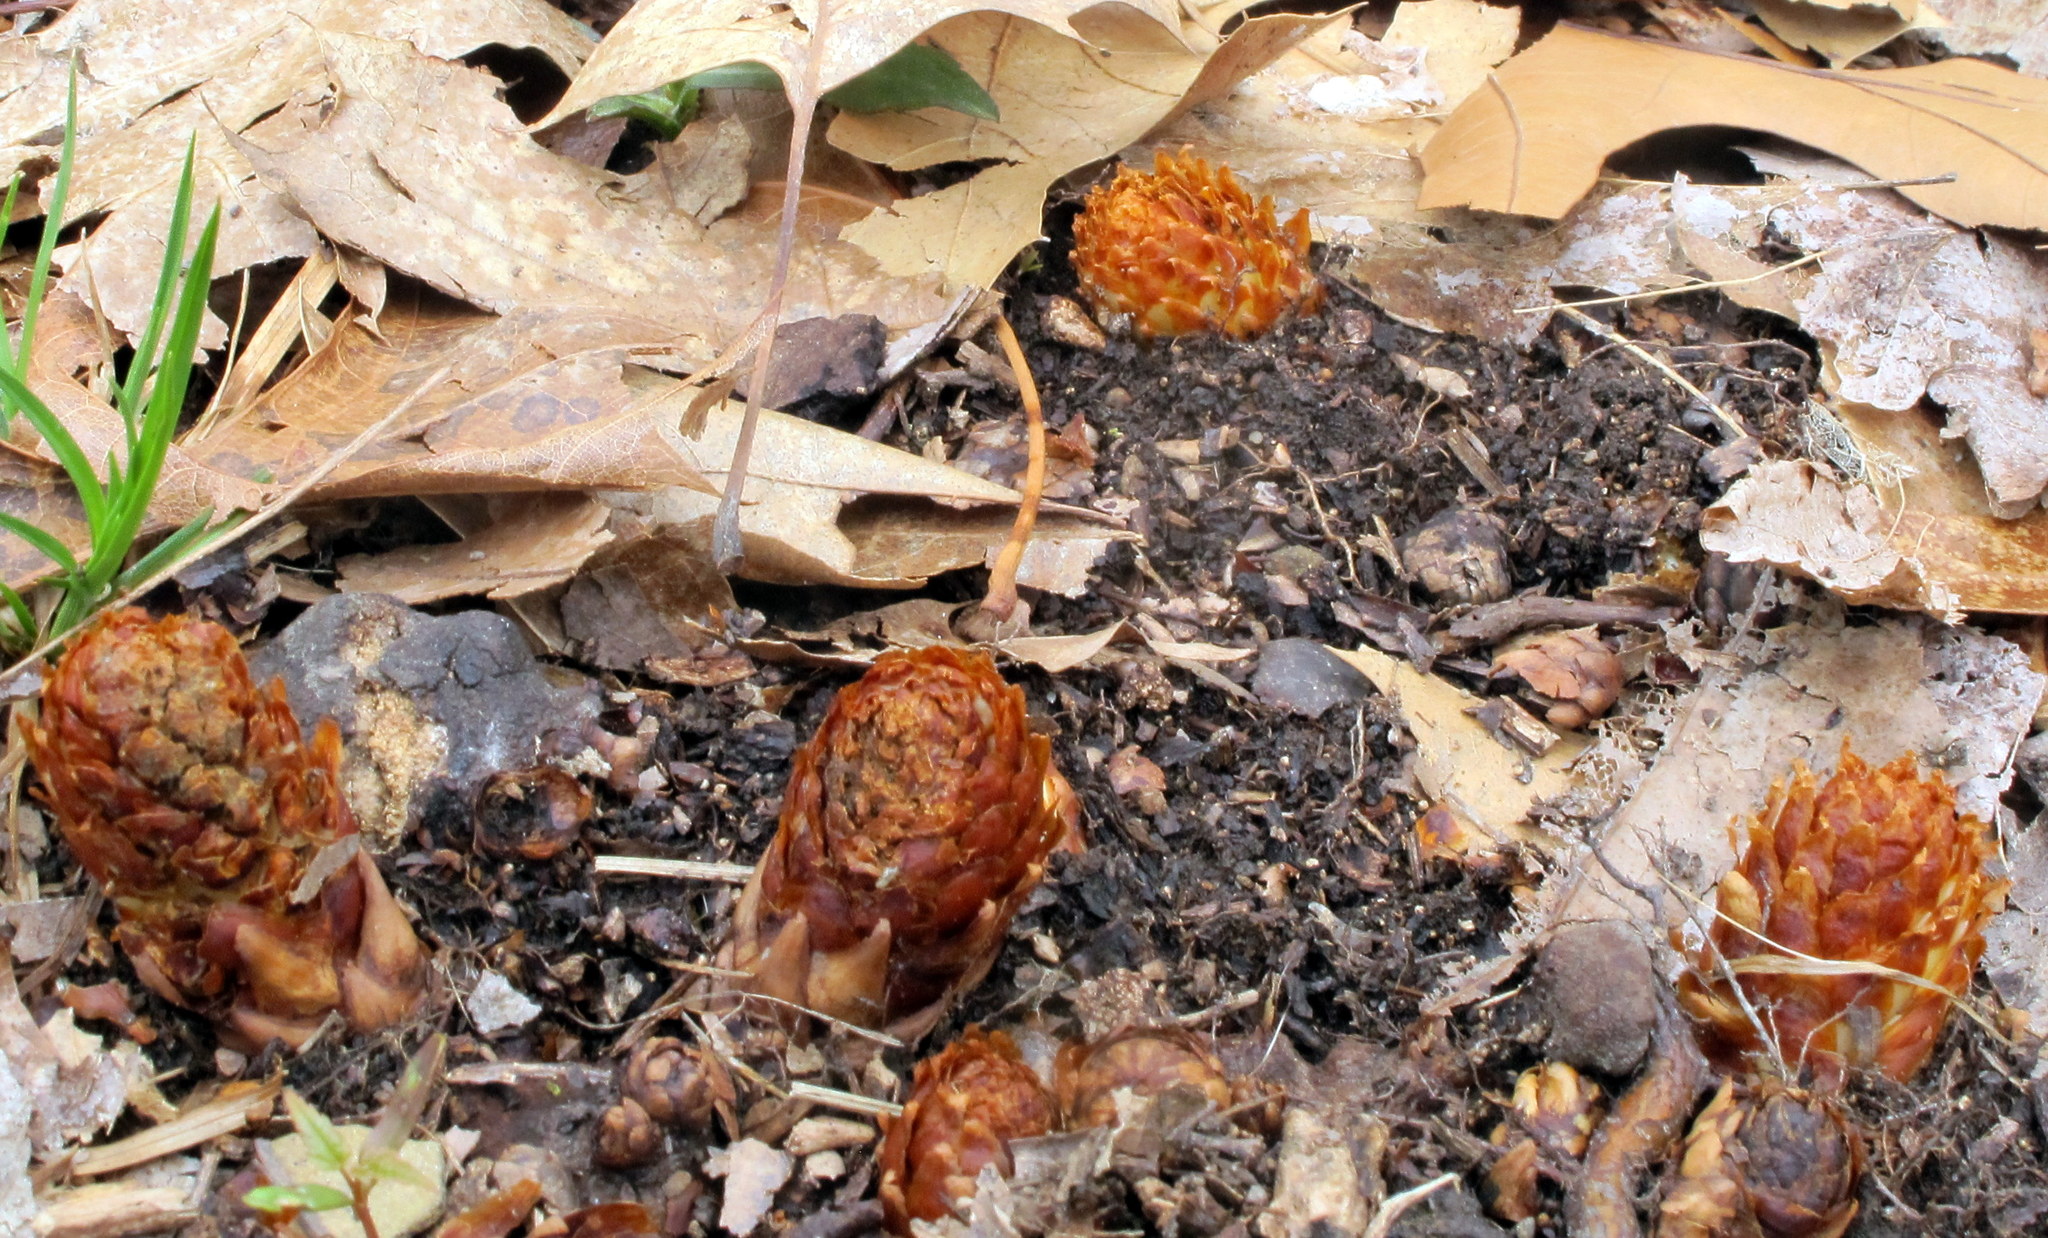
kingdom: Plantae
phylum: Tracheophyta
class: Magnoliopsida
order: Lamiales
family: Orobanchaceae
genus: Conopholis
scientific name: Conopholis americana
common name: American cancer-root
